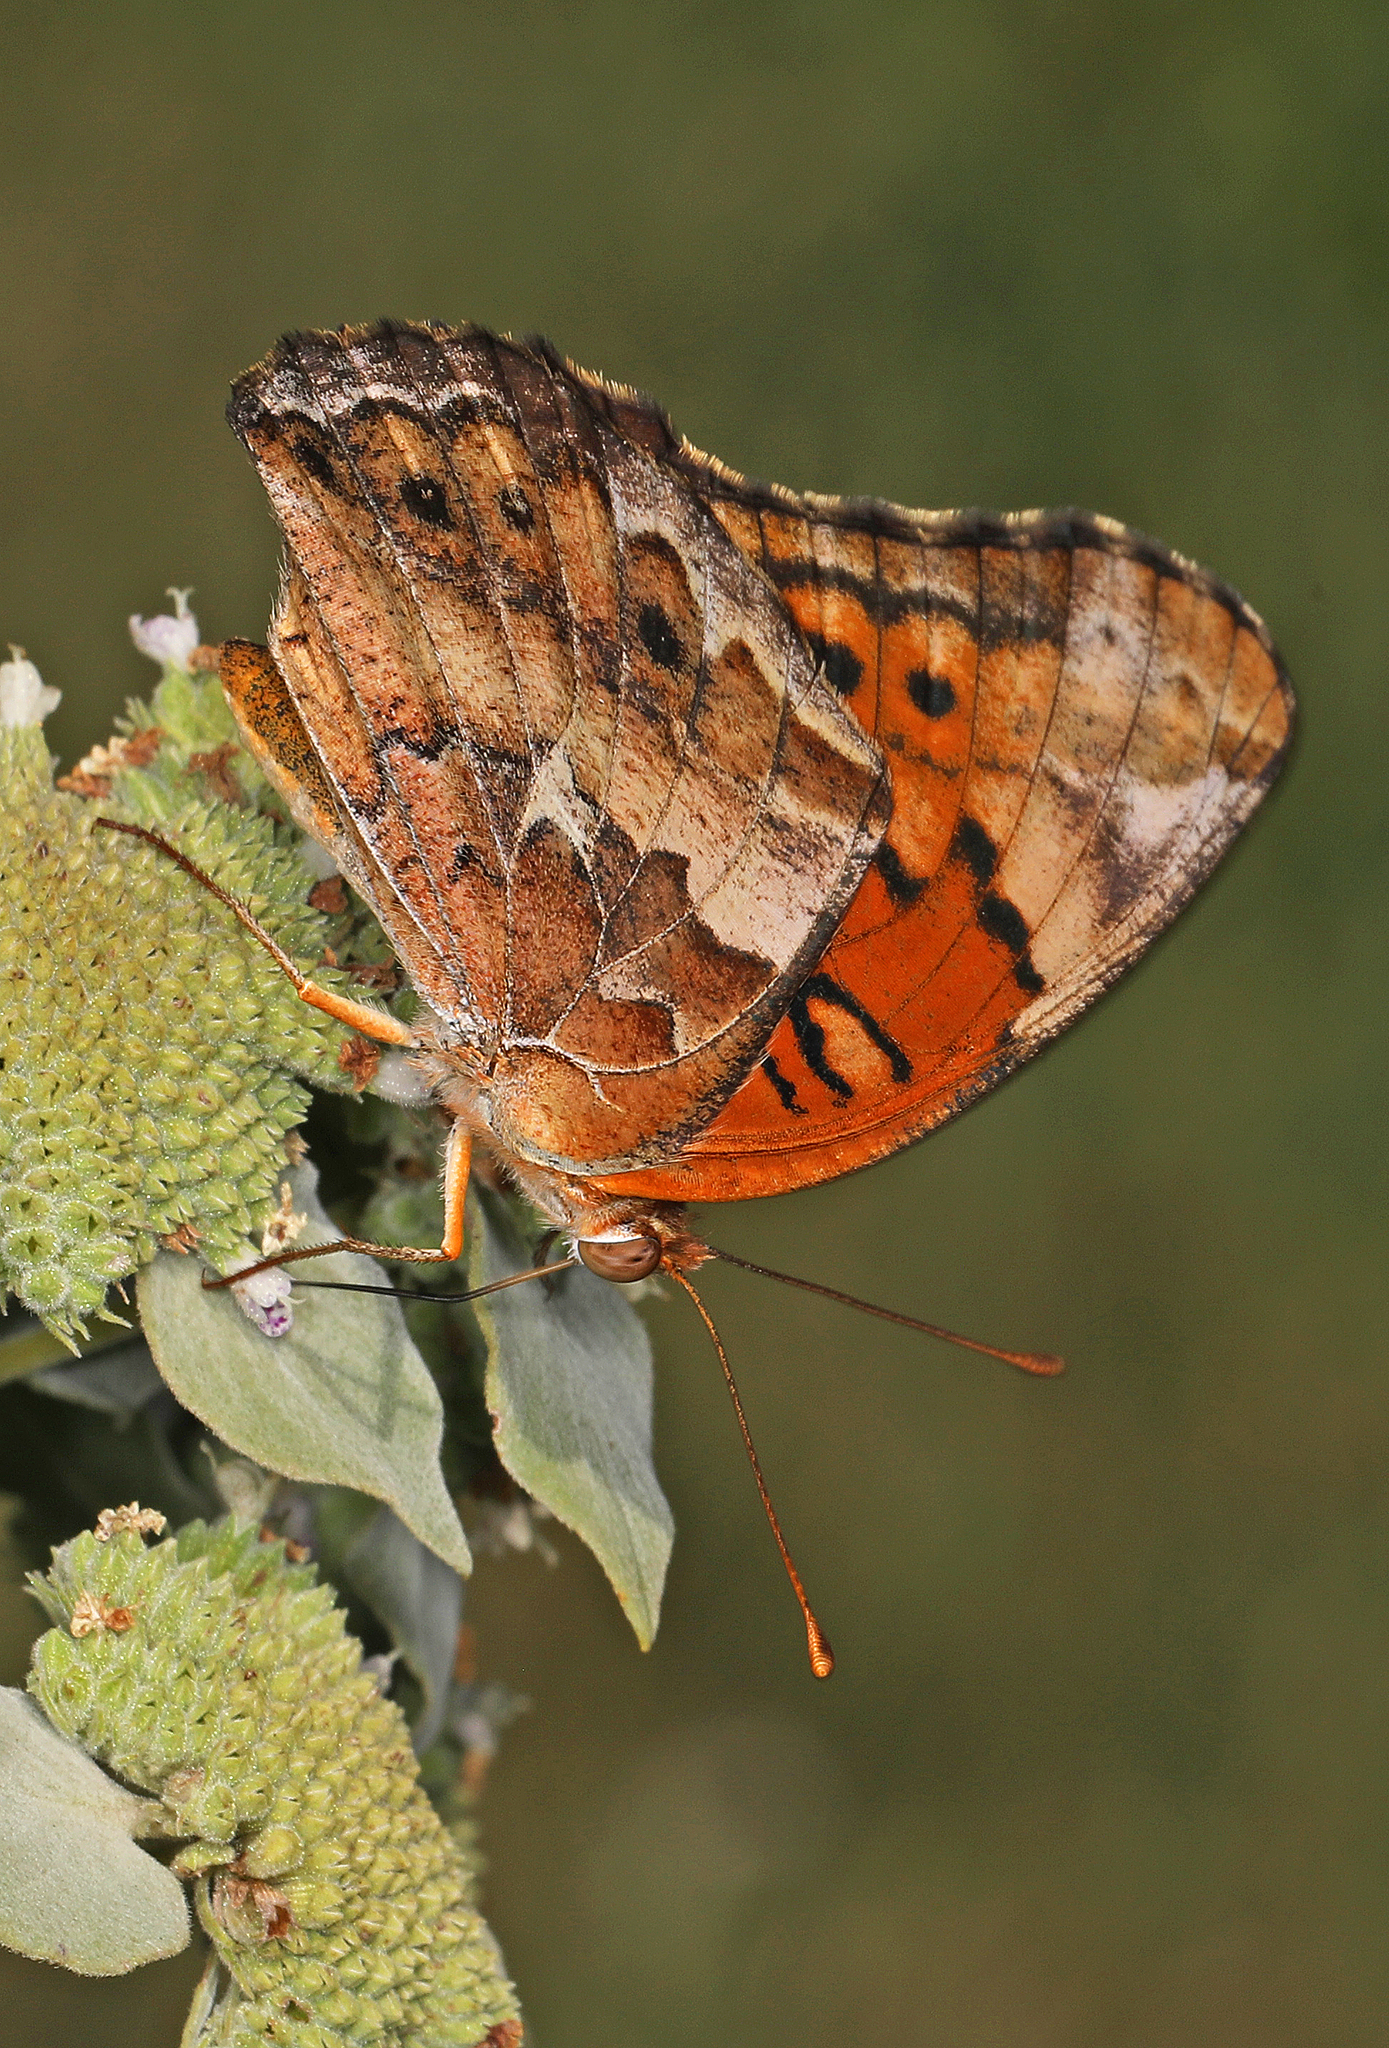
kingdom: Animalia
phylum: Arthropoda
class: Insecta
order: Lepidoptera
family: Nymphalidae
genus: Euptoieta
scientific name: Euptoieta claudia
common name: Variegated fritillary
